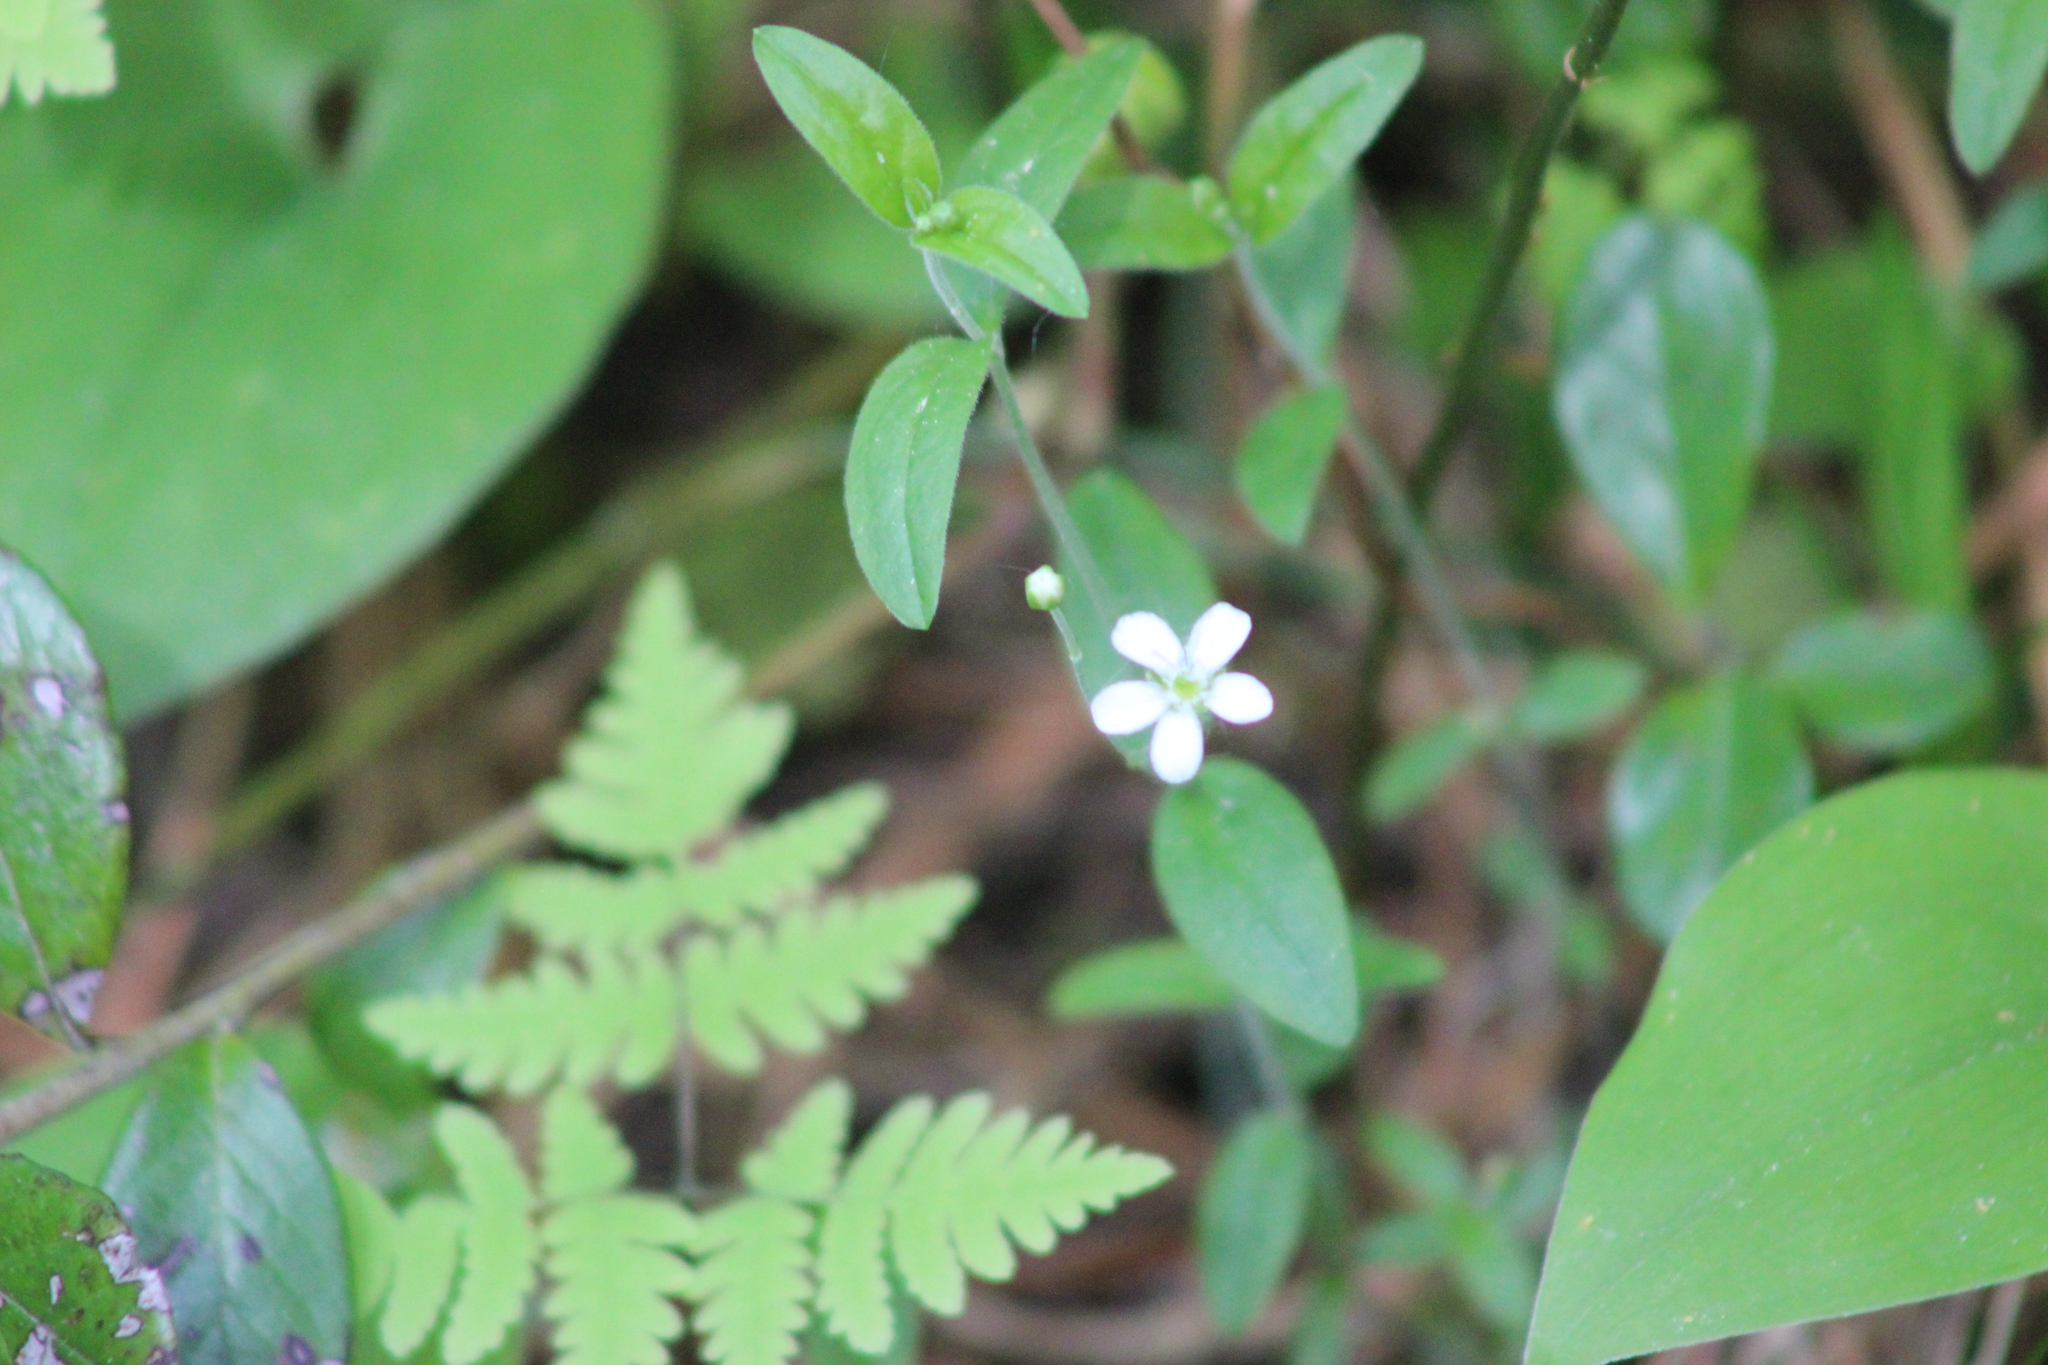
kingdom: Plantae
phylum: Tracheophyta
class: Magnoliopsida
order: Caryophyllales
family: Caryophyllaceae
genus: Moehringia
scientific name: Moehringia lateriflora
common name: Blunt-leaved sandwort
